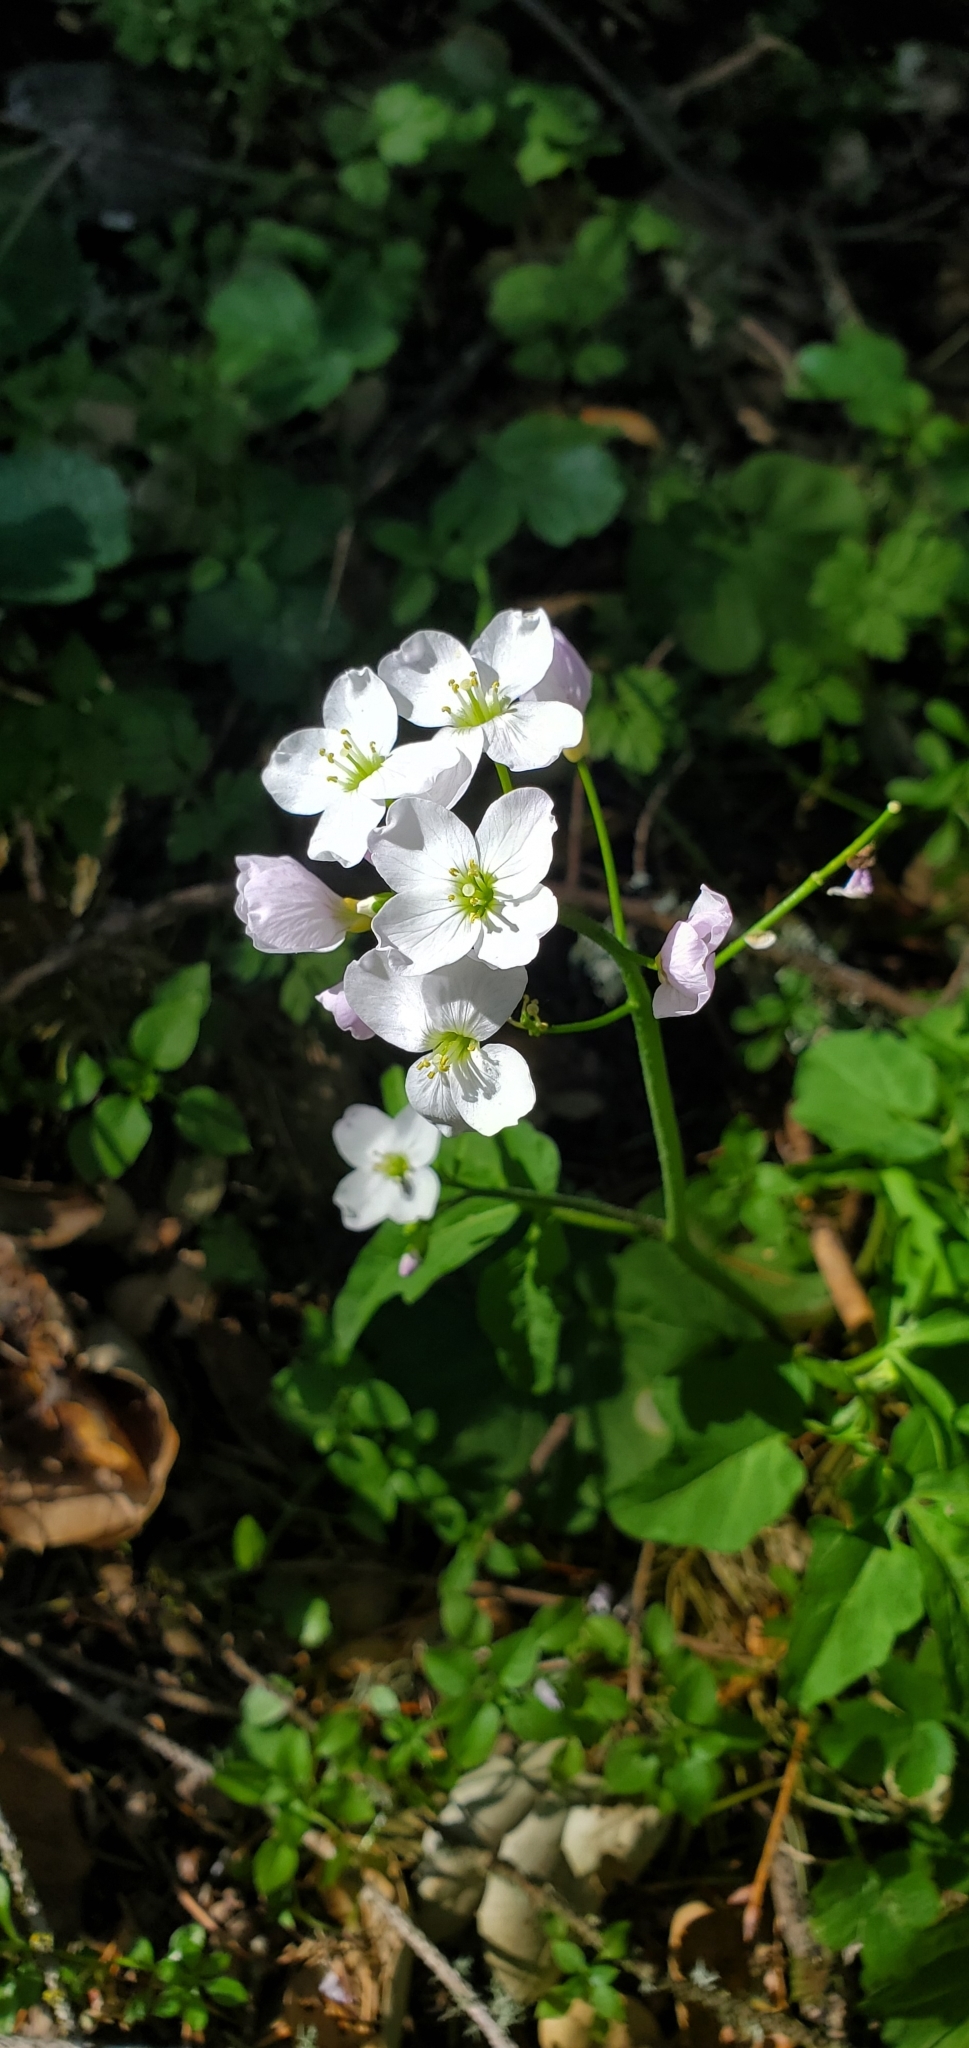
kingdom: Plantae
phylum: Tracheophyta
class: Magnoliopsida
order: Brassicales
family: Brassicaceae
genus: Cardamine
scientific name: Cardamine californica
